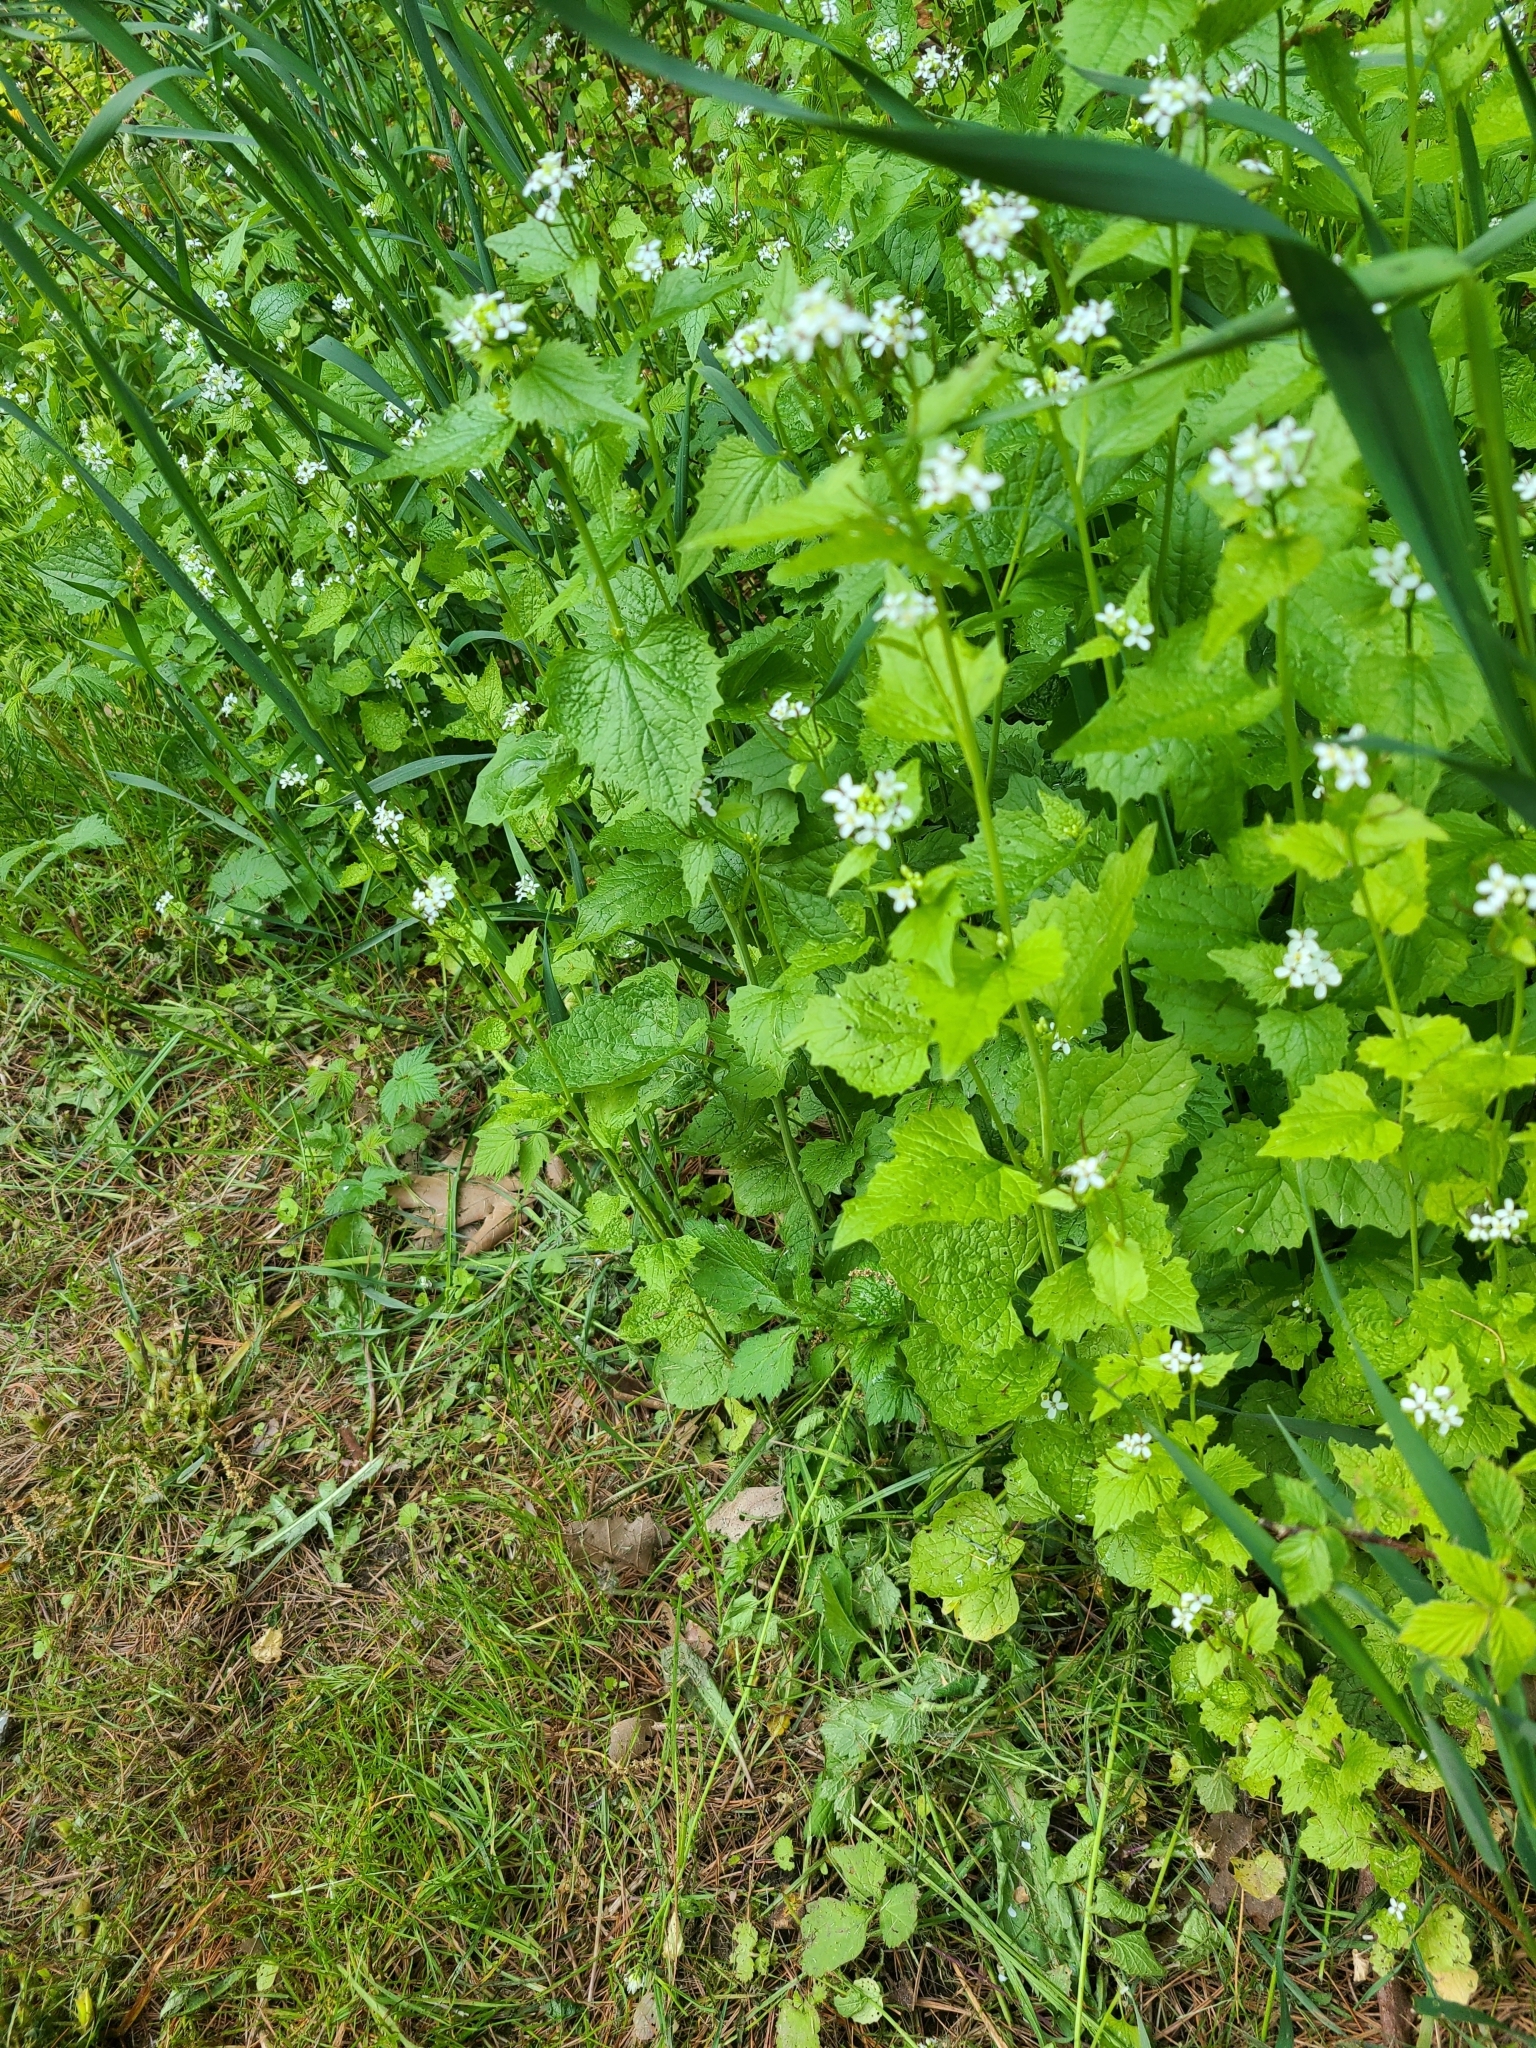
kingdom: Plantae
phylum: Tracheophyta
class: Magnoliopsida
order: Brassicales
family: Brassicaceae
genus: Alliaria
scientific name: Alliaria petiolata
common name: Garlic mustard
